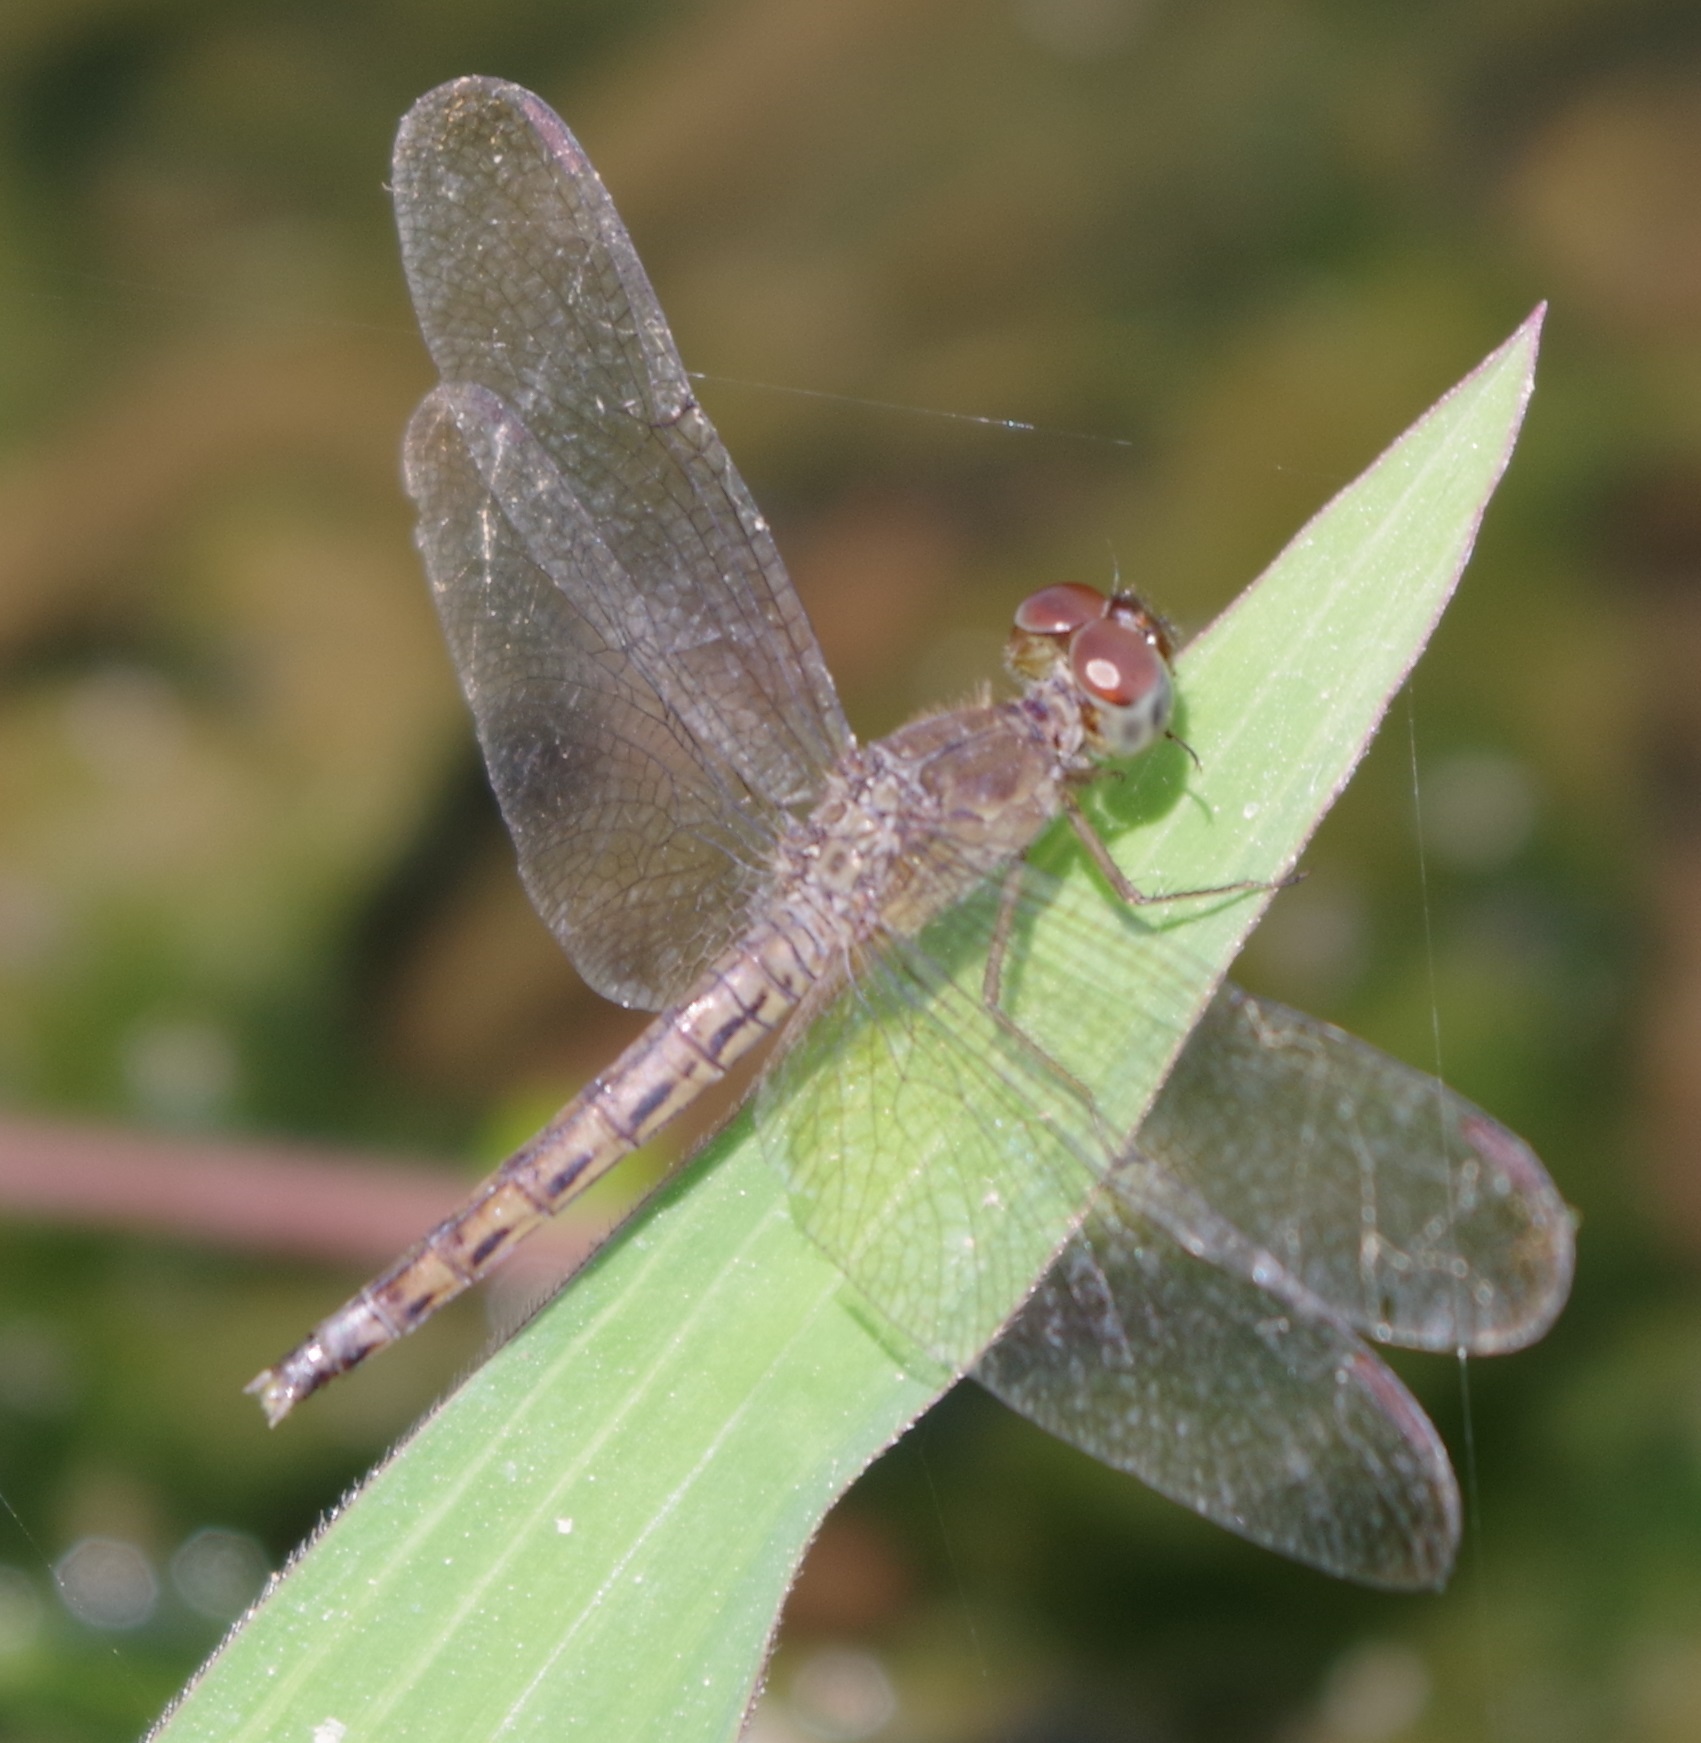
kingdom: Animalia
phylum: Arthropoda
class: Insecta
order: Odonata
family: Libellulidae
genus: Neurothemis
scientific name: Neurothemis fluctuans
